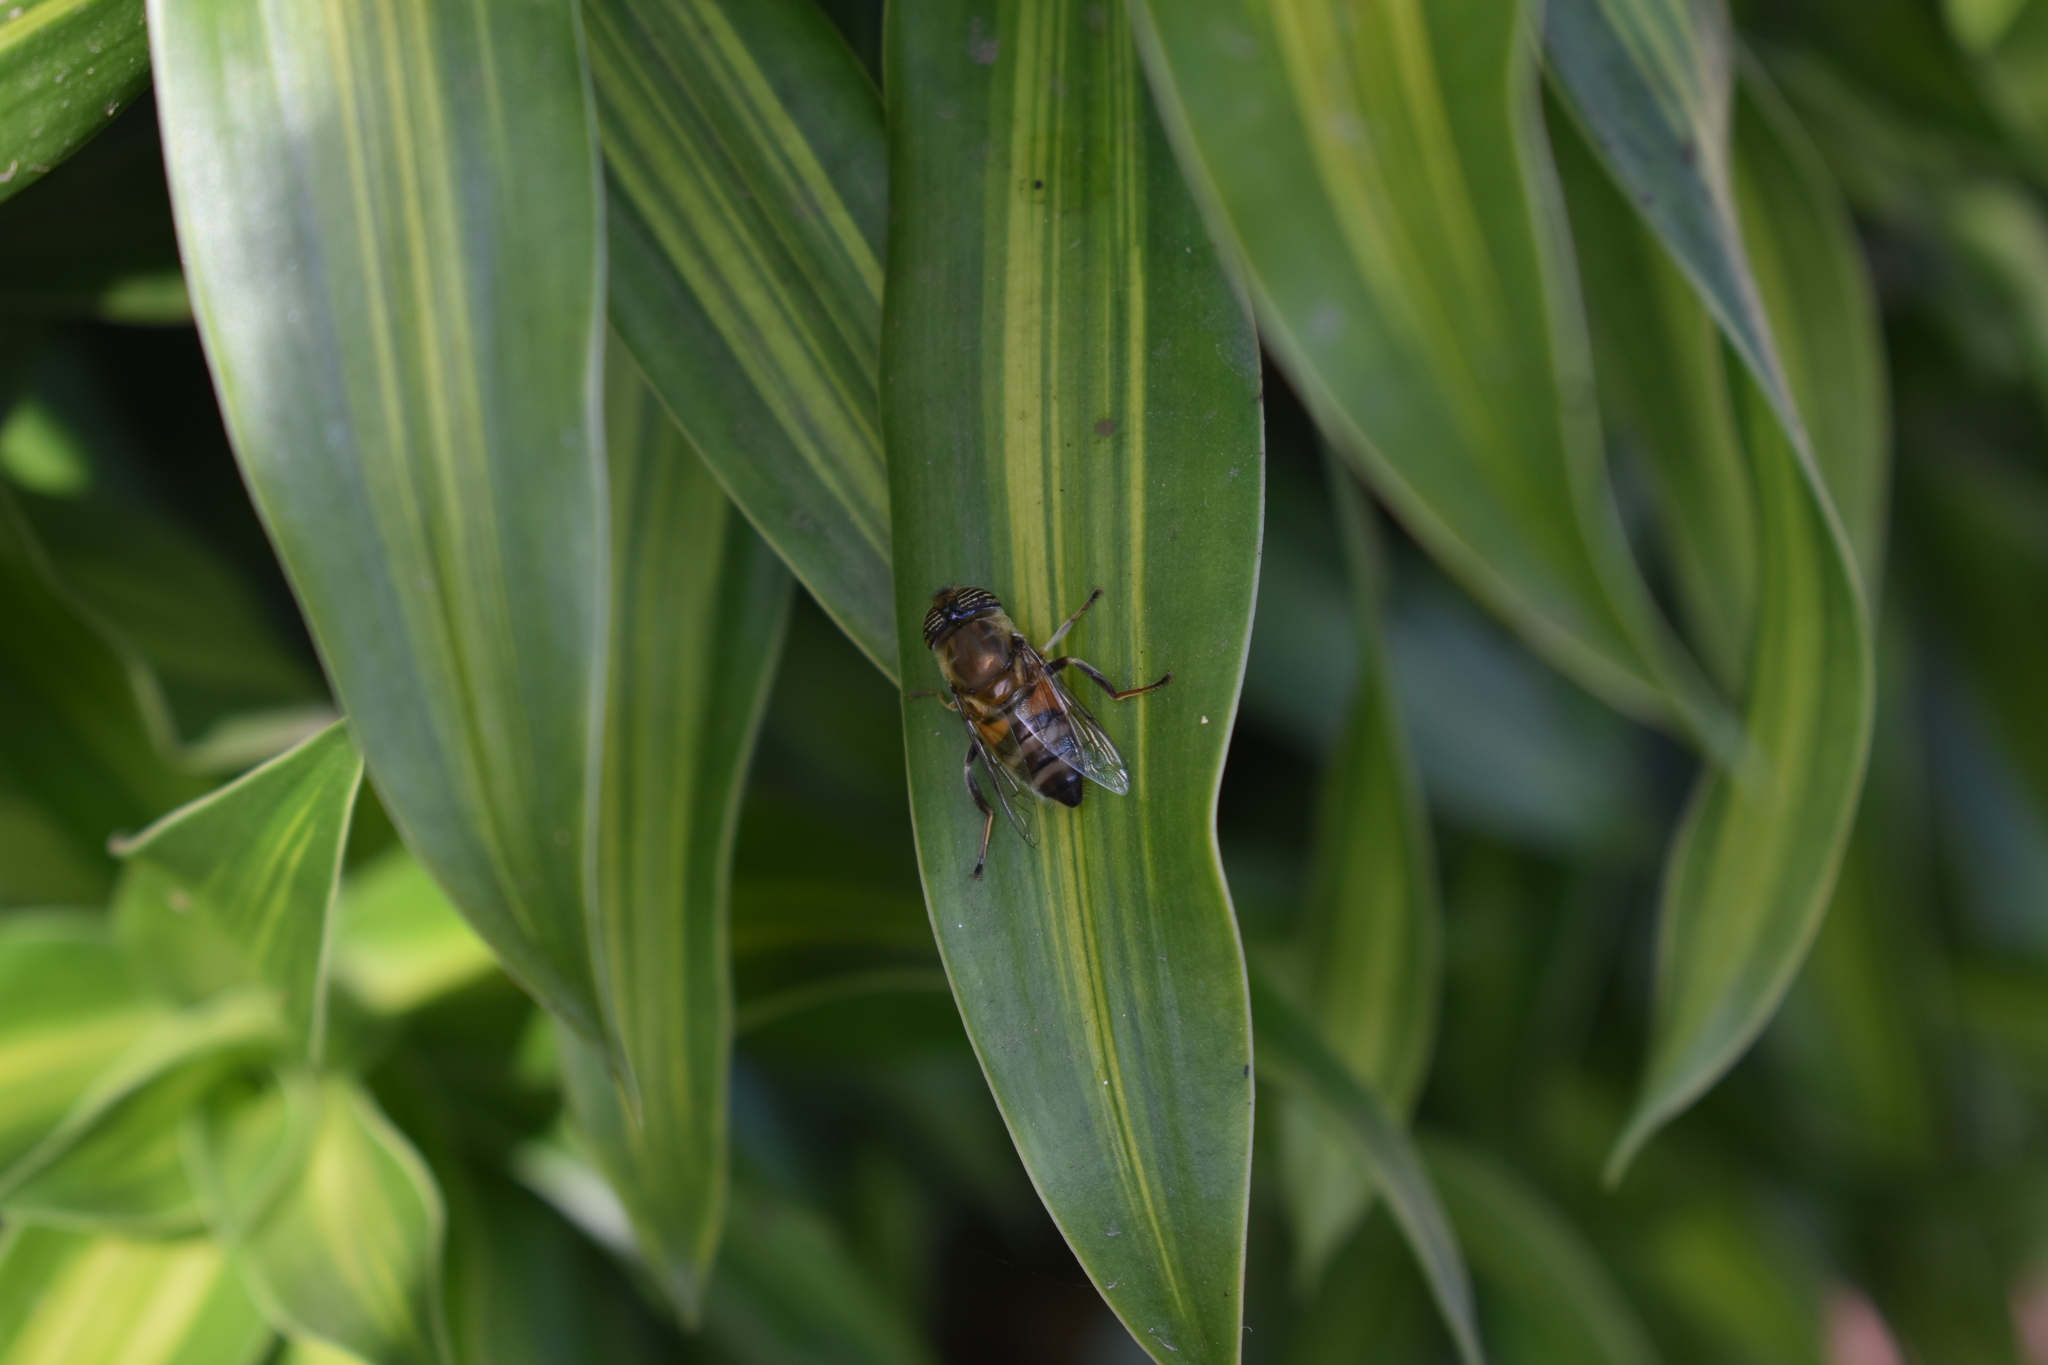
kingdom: Animalia
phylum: Arthropoda
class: Insecta
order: Diptera
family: Syrphidae
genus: Eristalinus
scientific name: Eristalinus taeniops
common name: Syrphid fly
